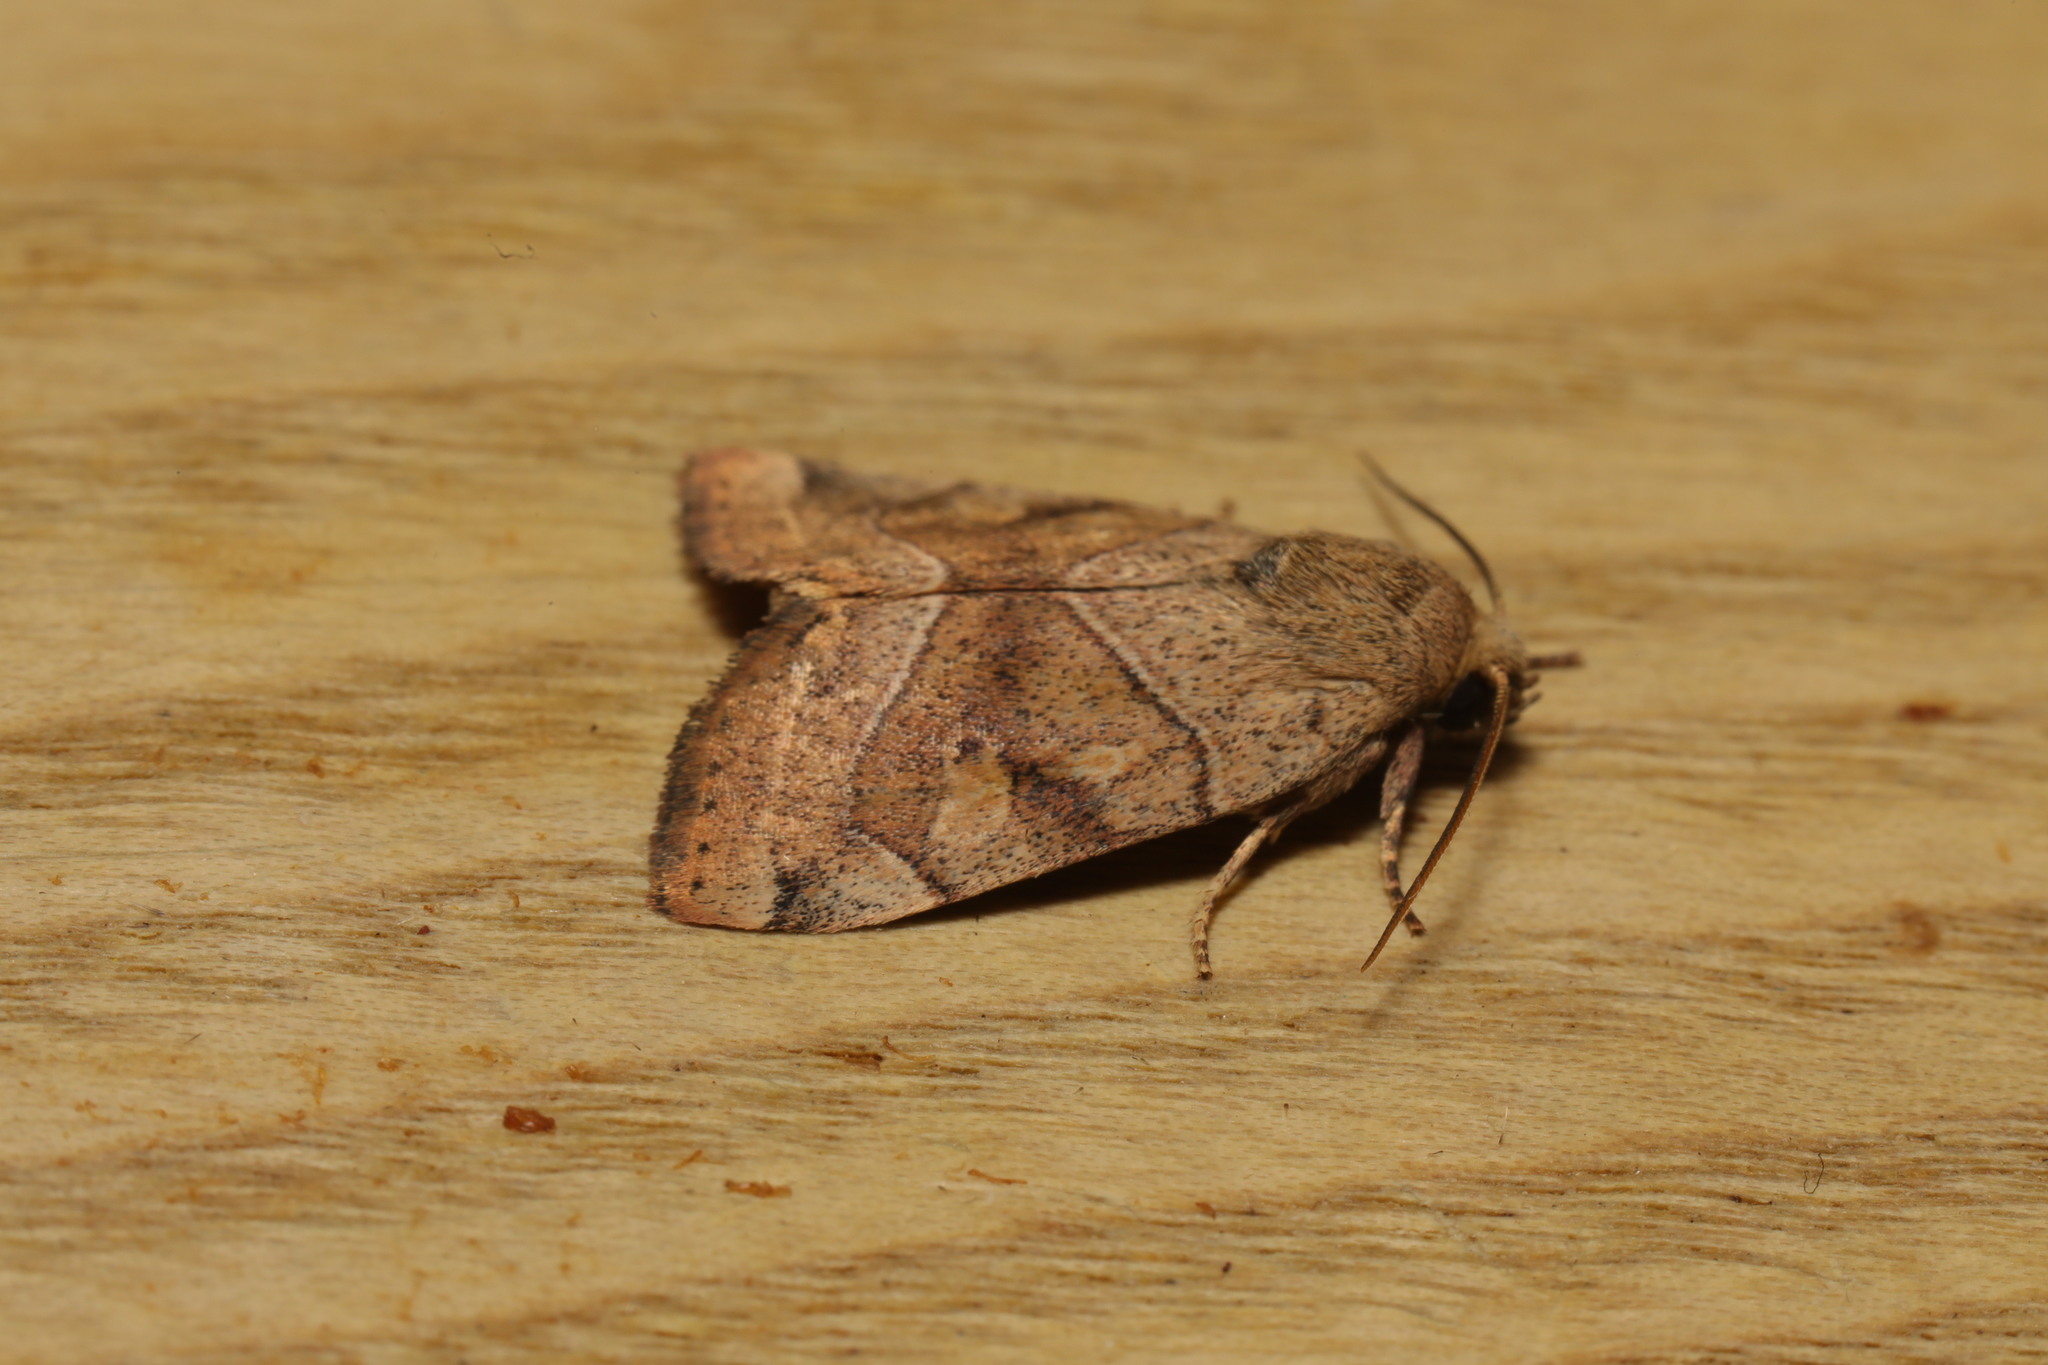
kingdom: Animalia
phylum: Arthropoda
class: Insecta
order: Lepidoptera
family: Noctuidae
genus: Cosmia
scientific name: Cosmia trapezina
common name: Dun-bar
